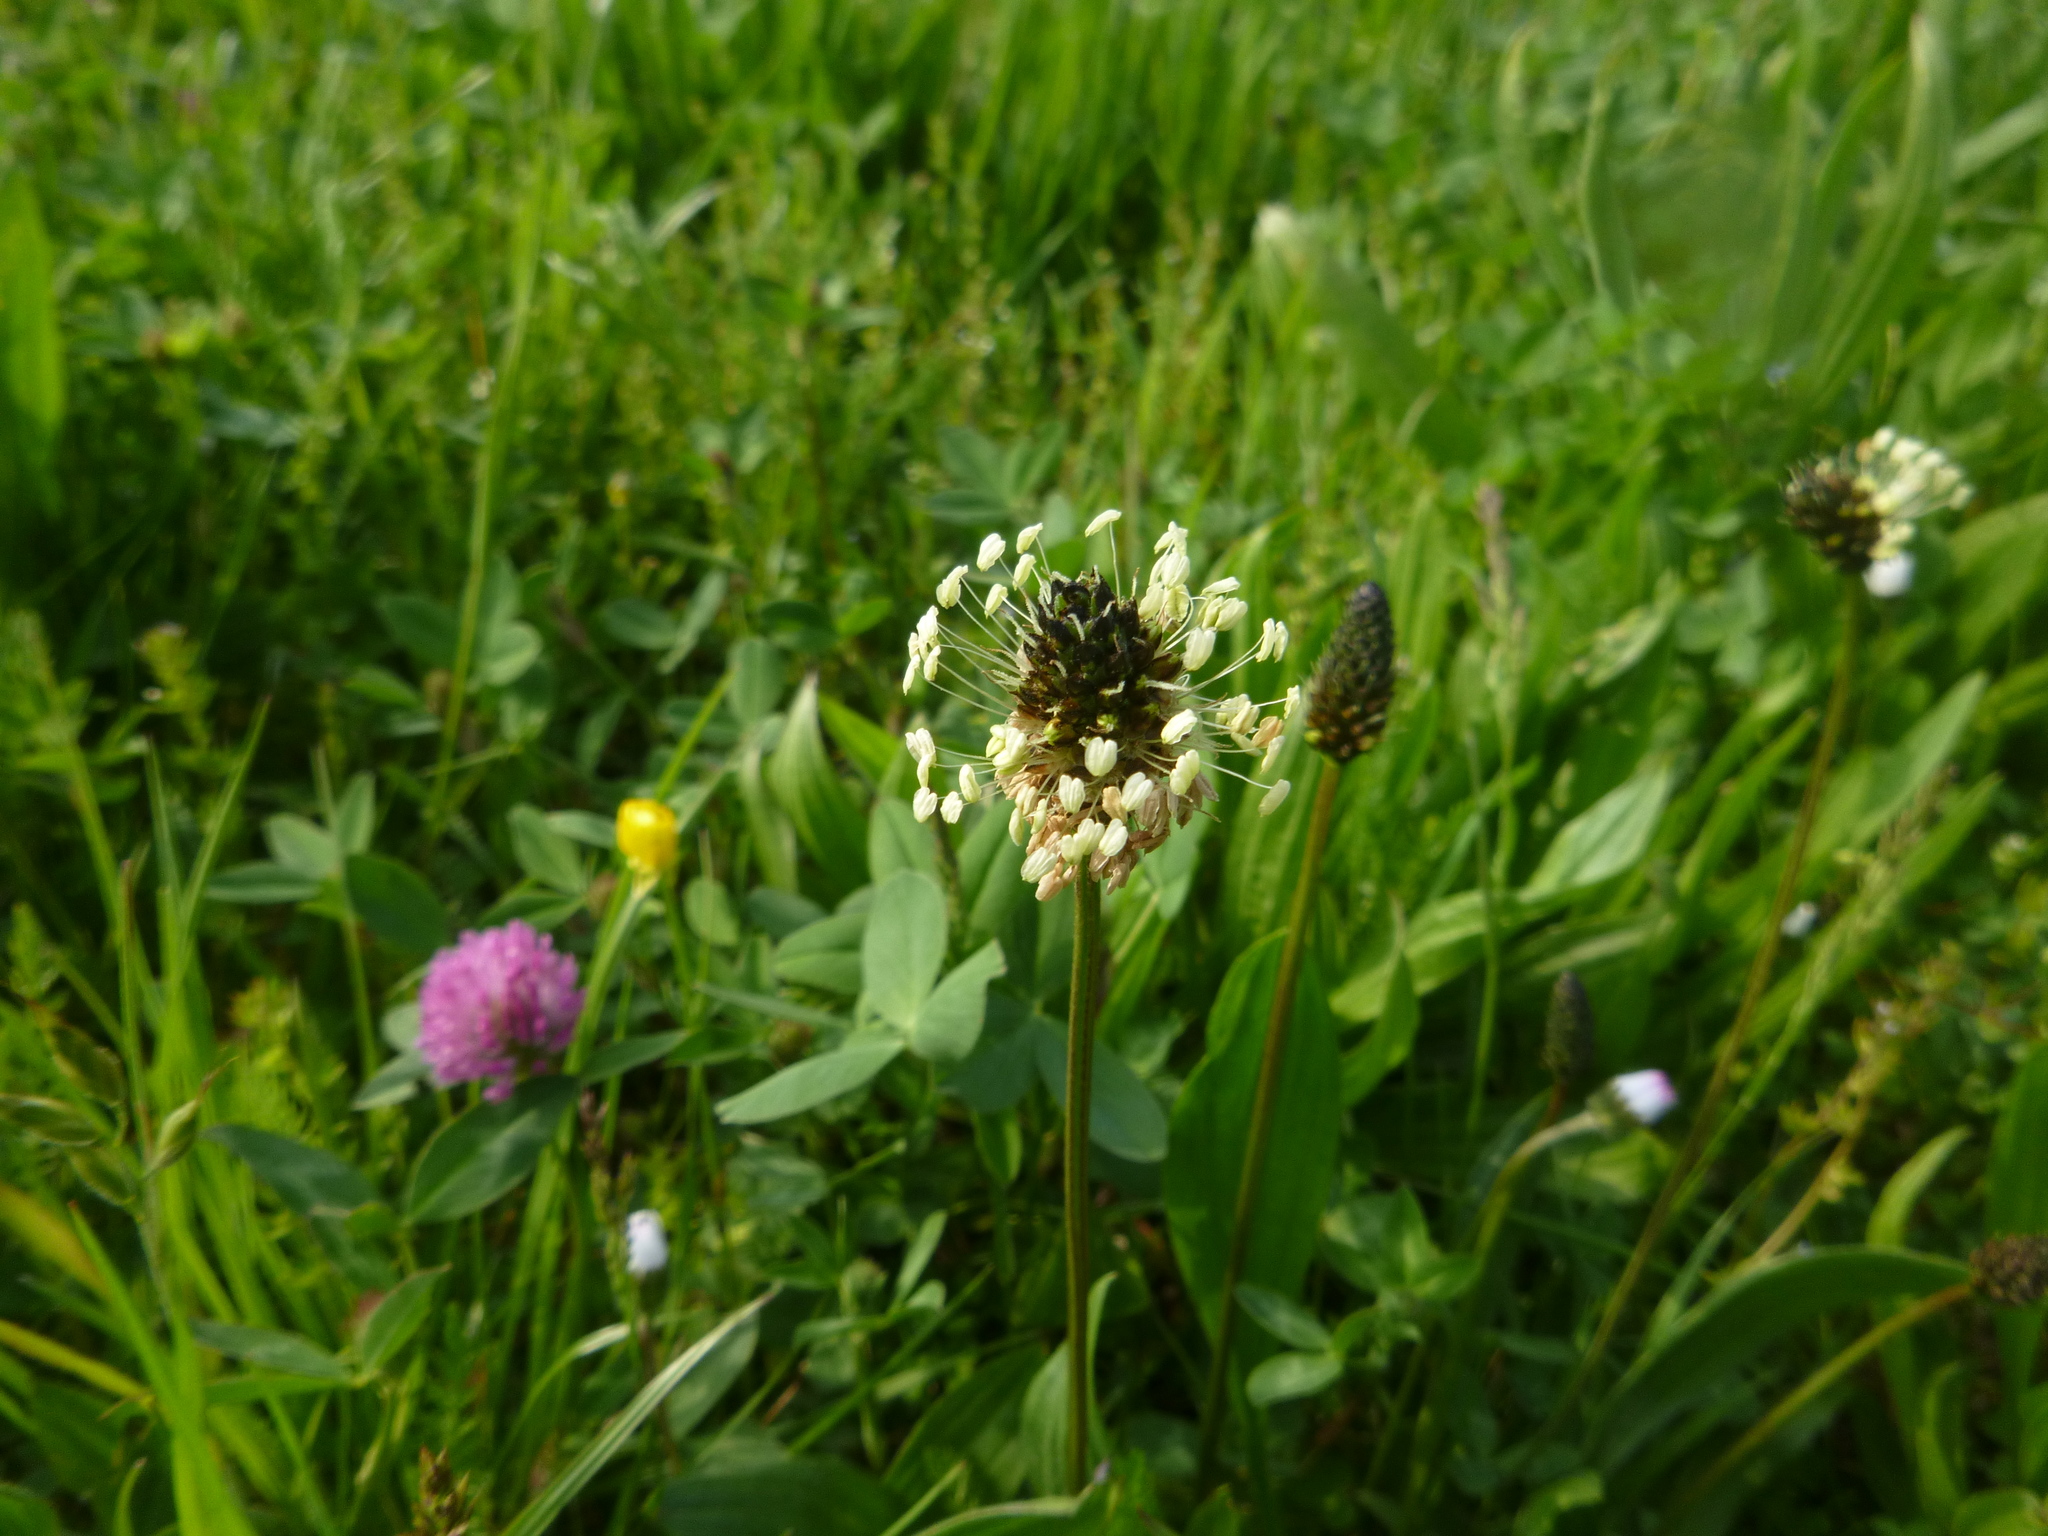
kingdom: Plantae
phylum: Tracheophyta
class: Magnoliopsida
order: Lamiales
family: Plantaginaceae
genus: Plantago
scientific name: Plantago lanceolata
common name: Ribwort plantain
